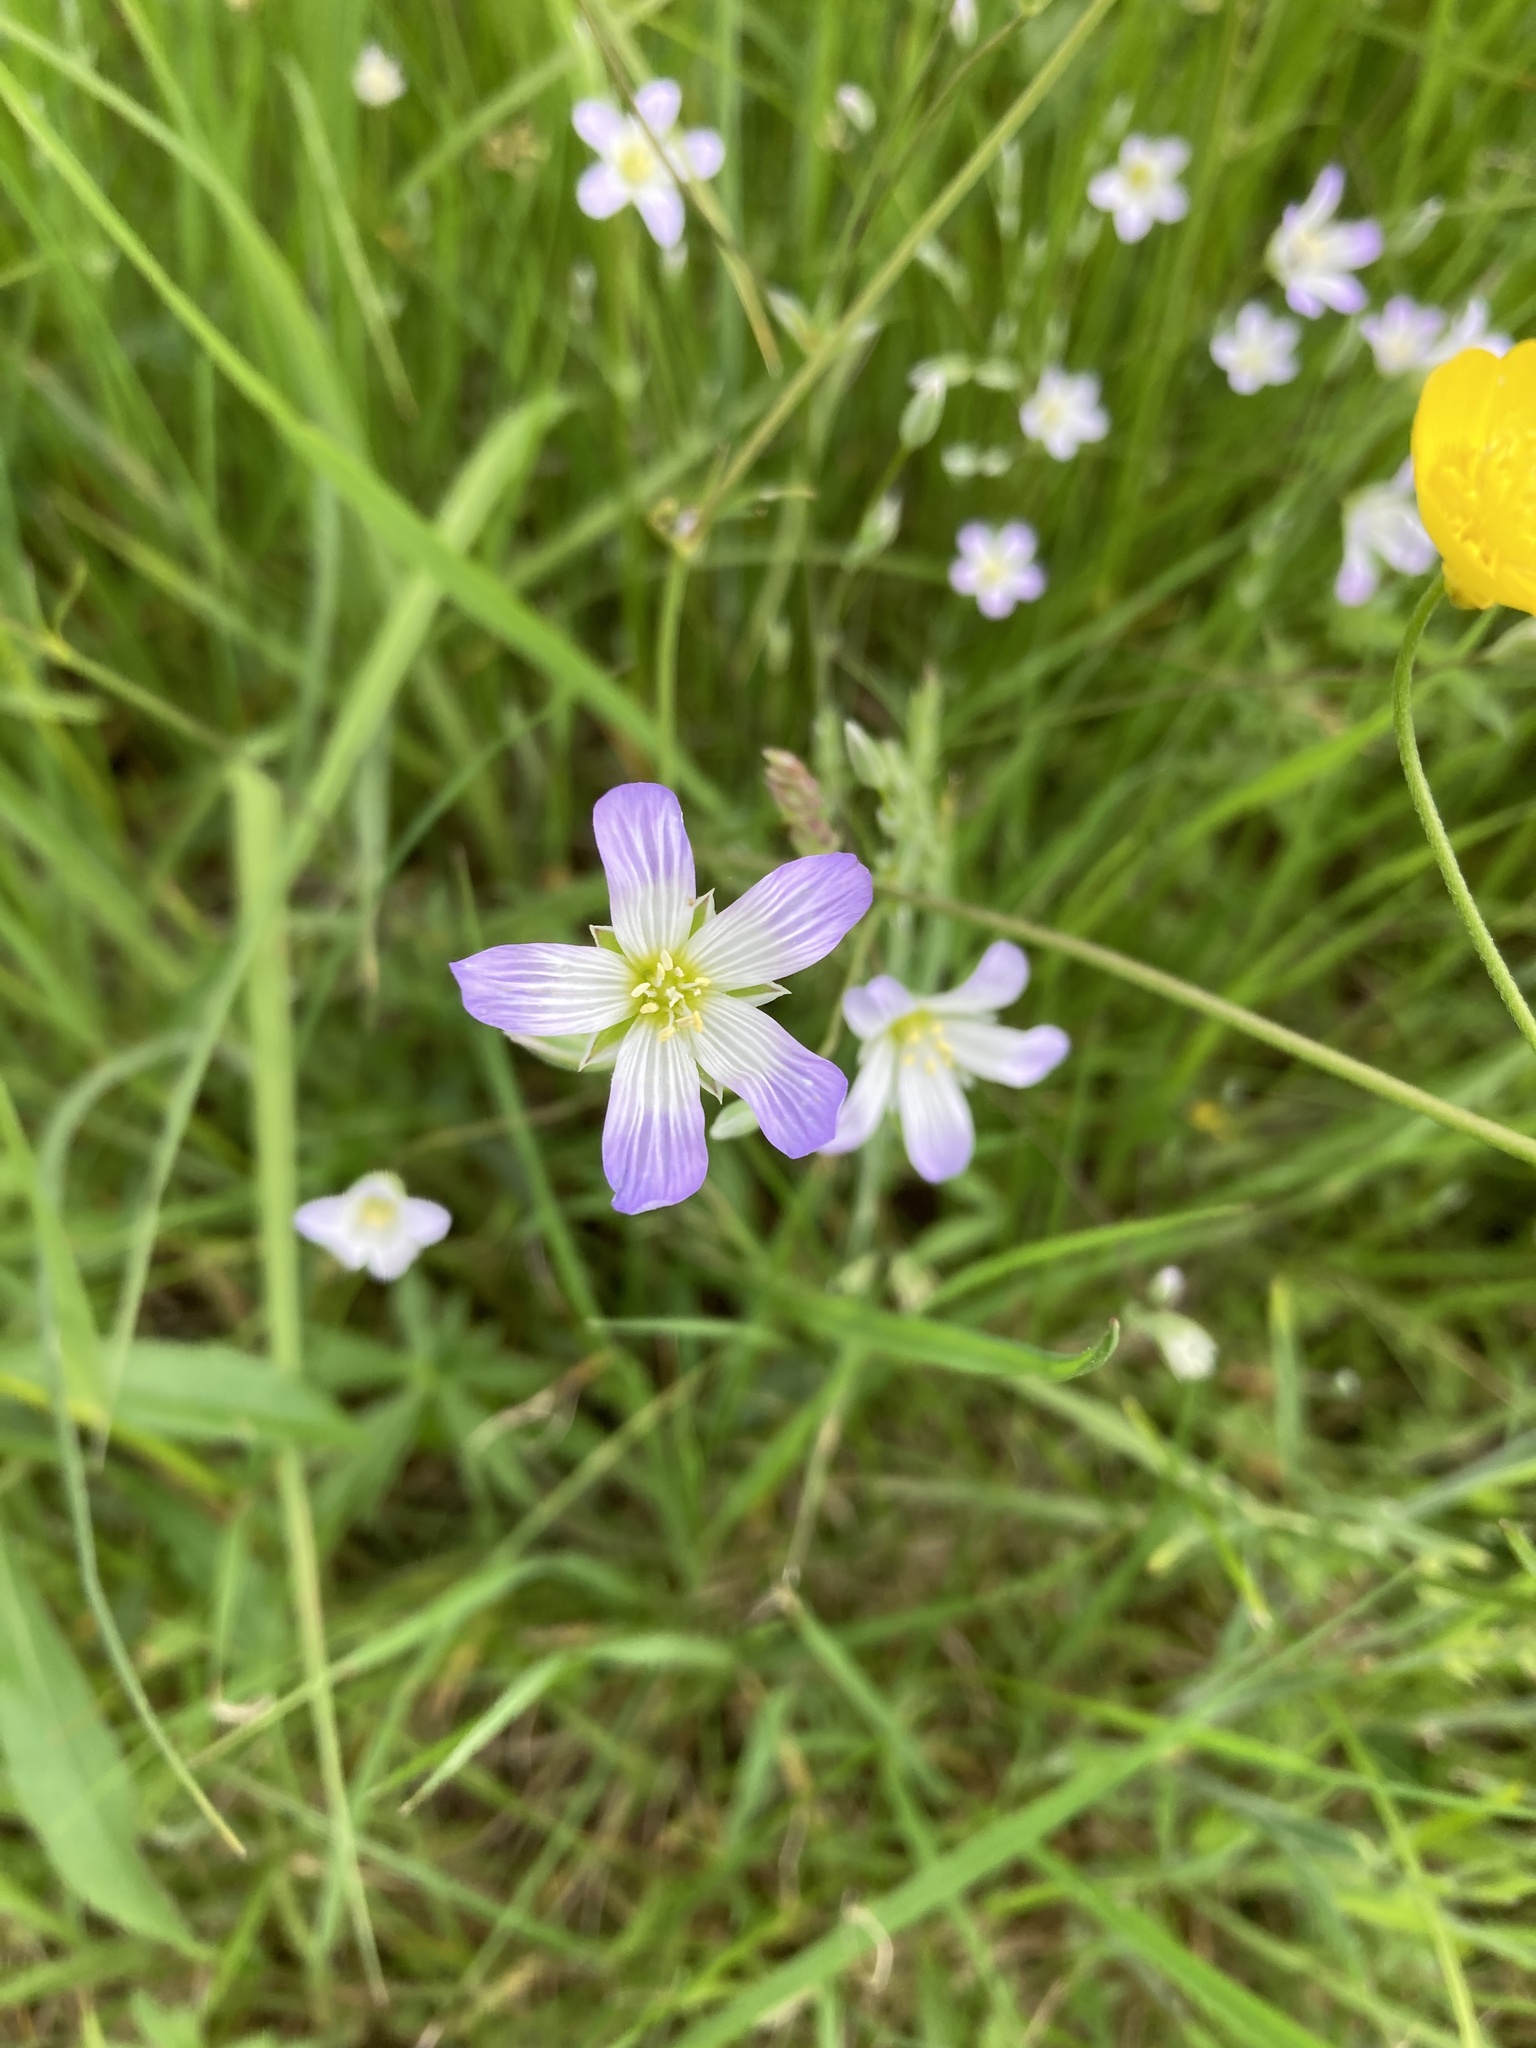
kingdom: Plantae
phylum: Tracheophyta
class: Magnoliopsida
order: Caryophyllales
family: Caryophyllaceae
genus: Moenchia
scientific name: Moenchia mantica
